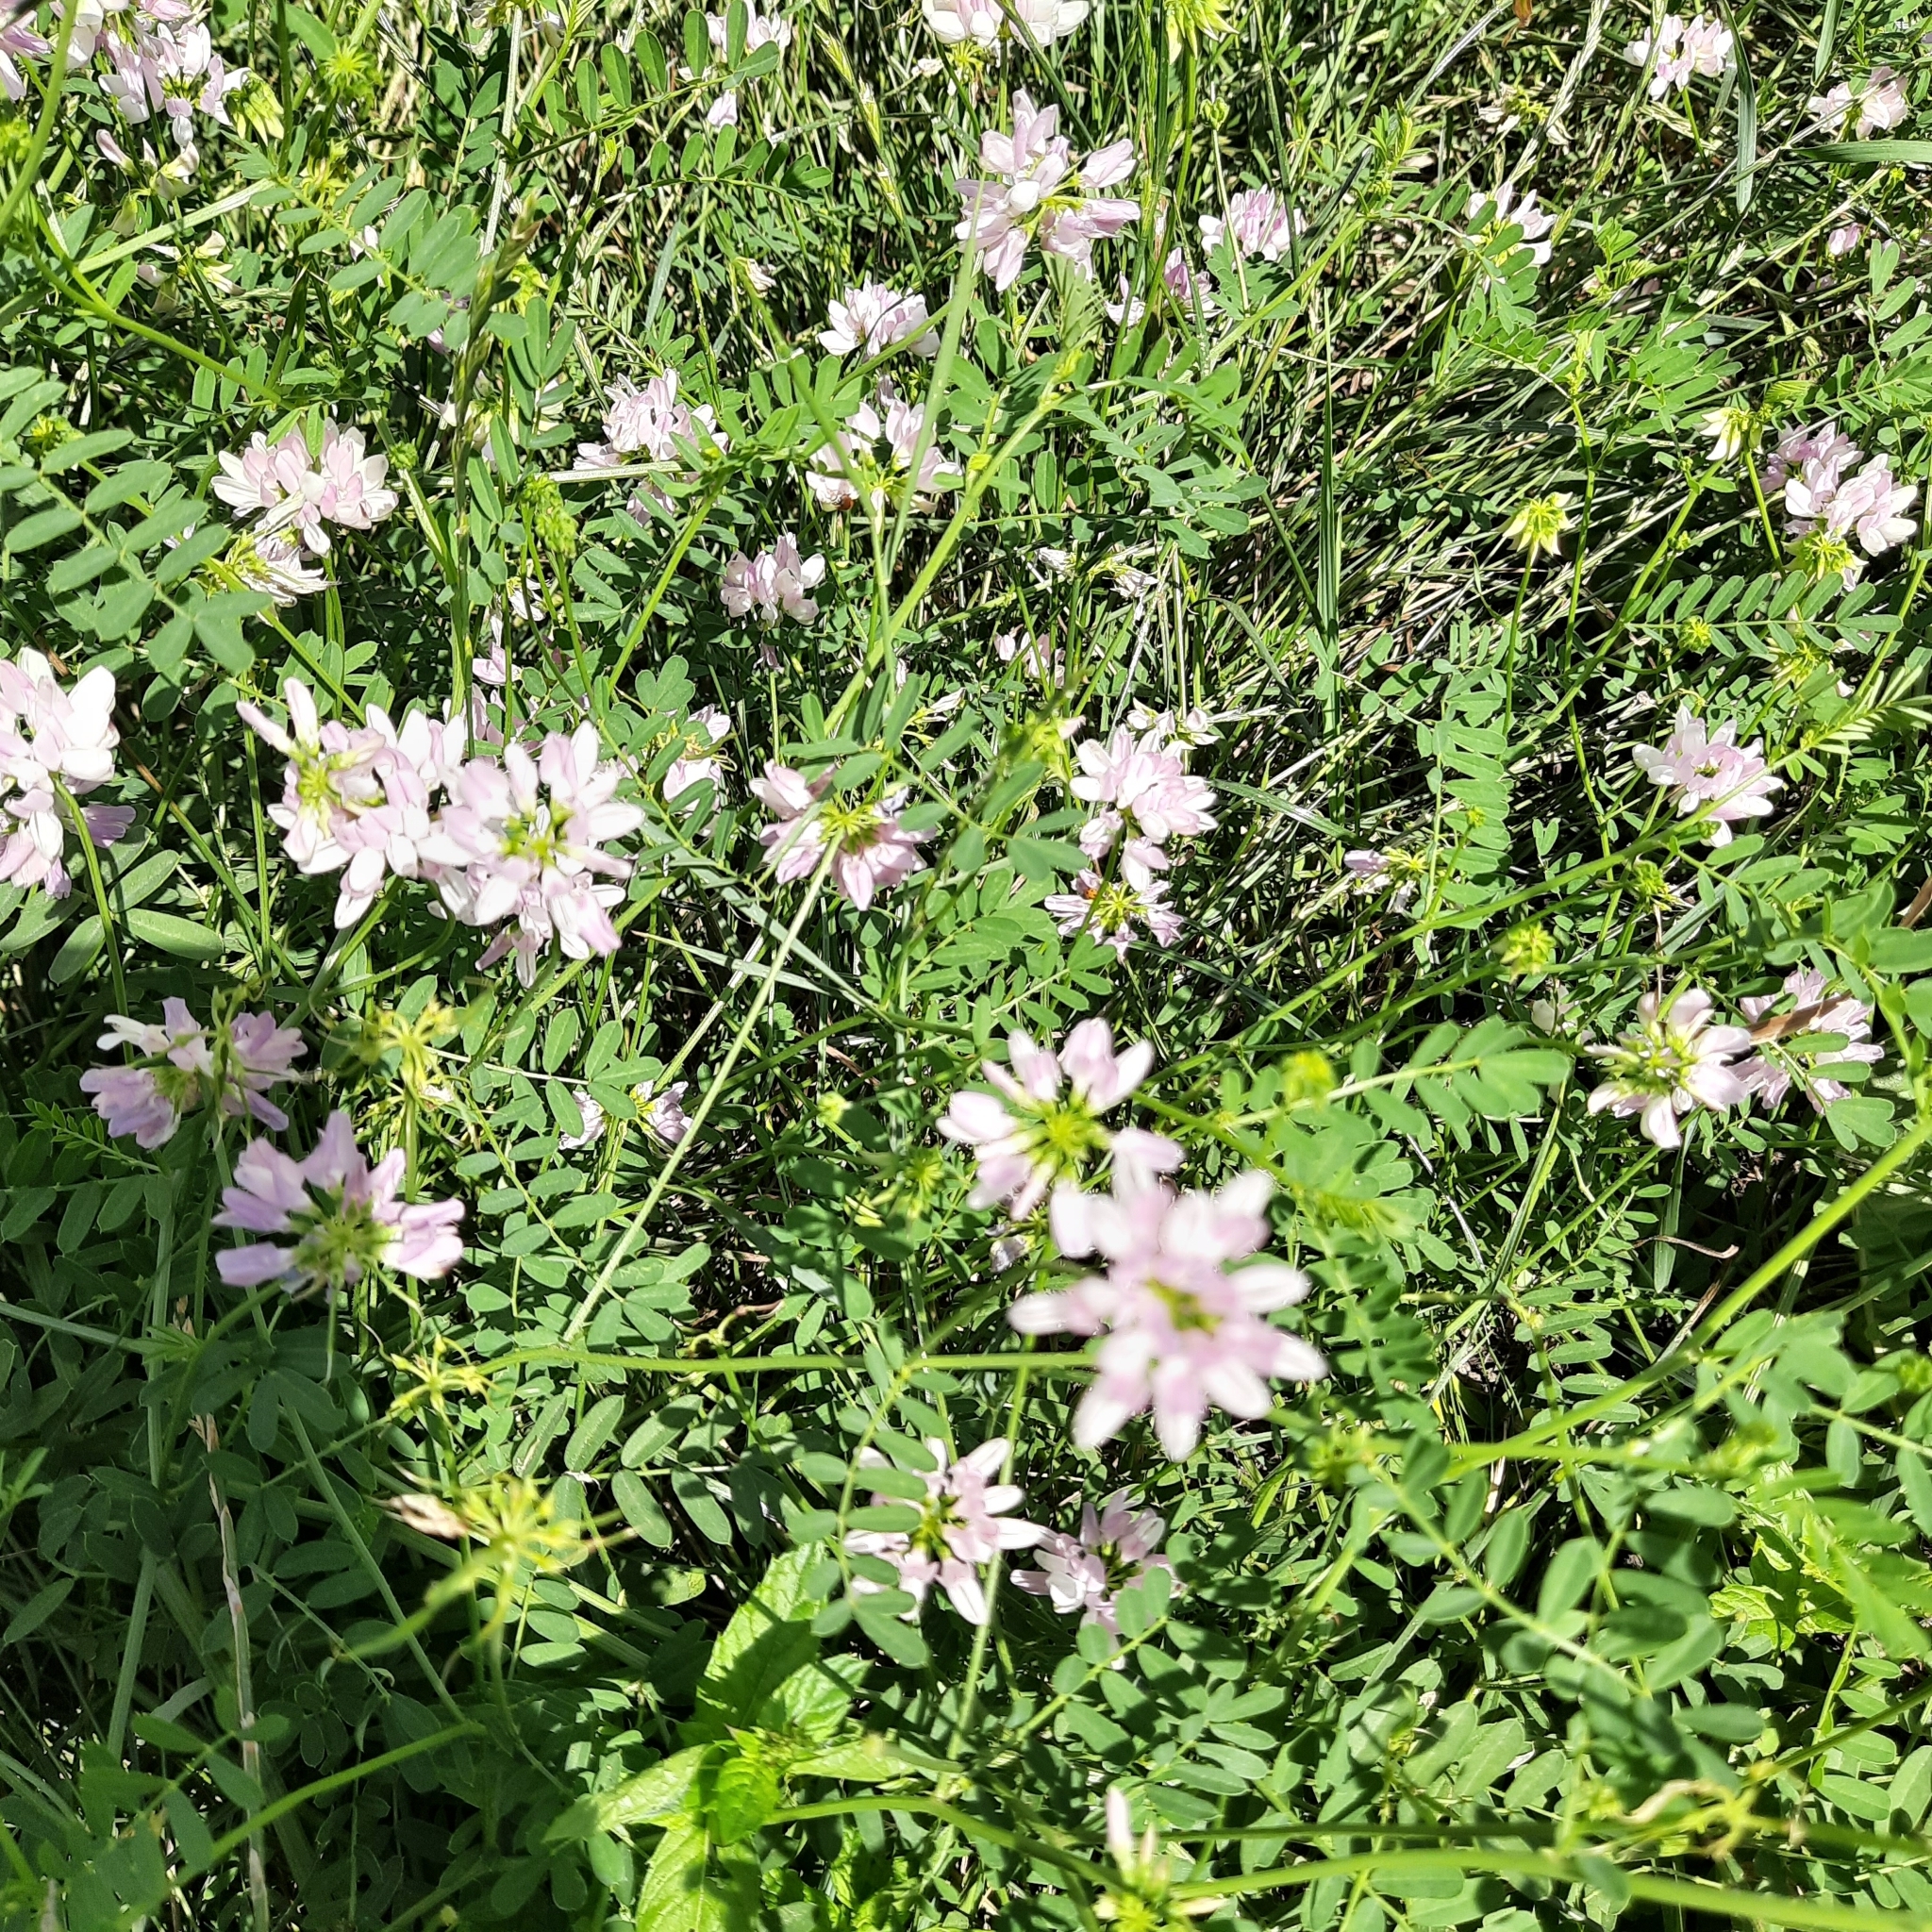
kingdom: Plantae
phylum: Tracheophyta
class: Magnoliopsida
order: Fabales
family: Fabaceae
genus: Coronilla
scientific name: Coronilla varia
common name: Crownvetch
